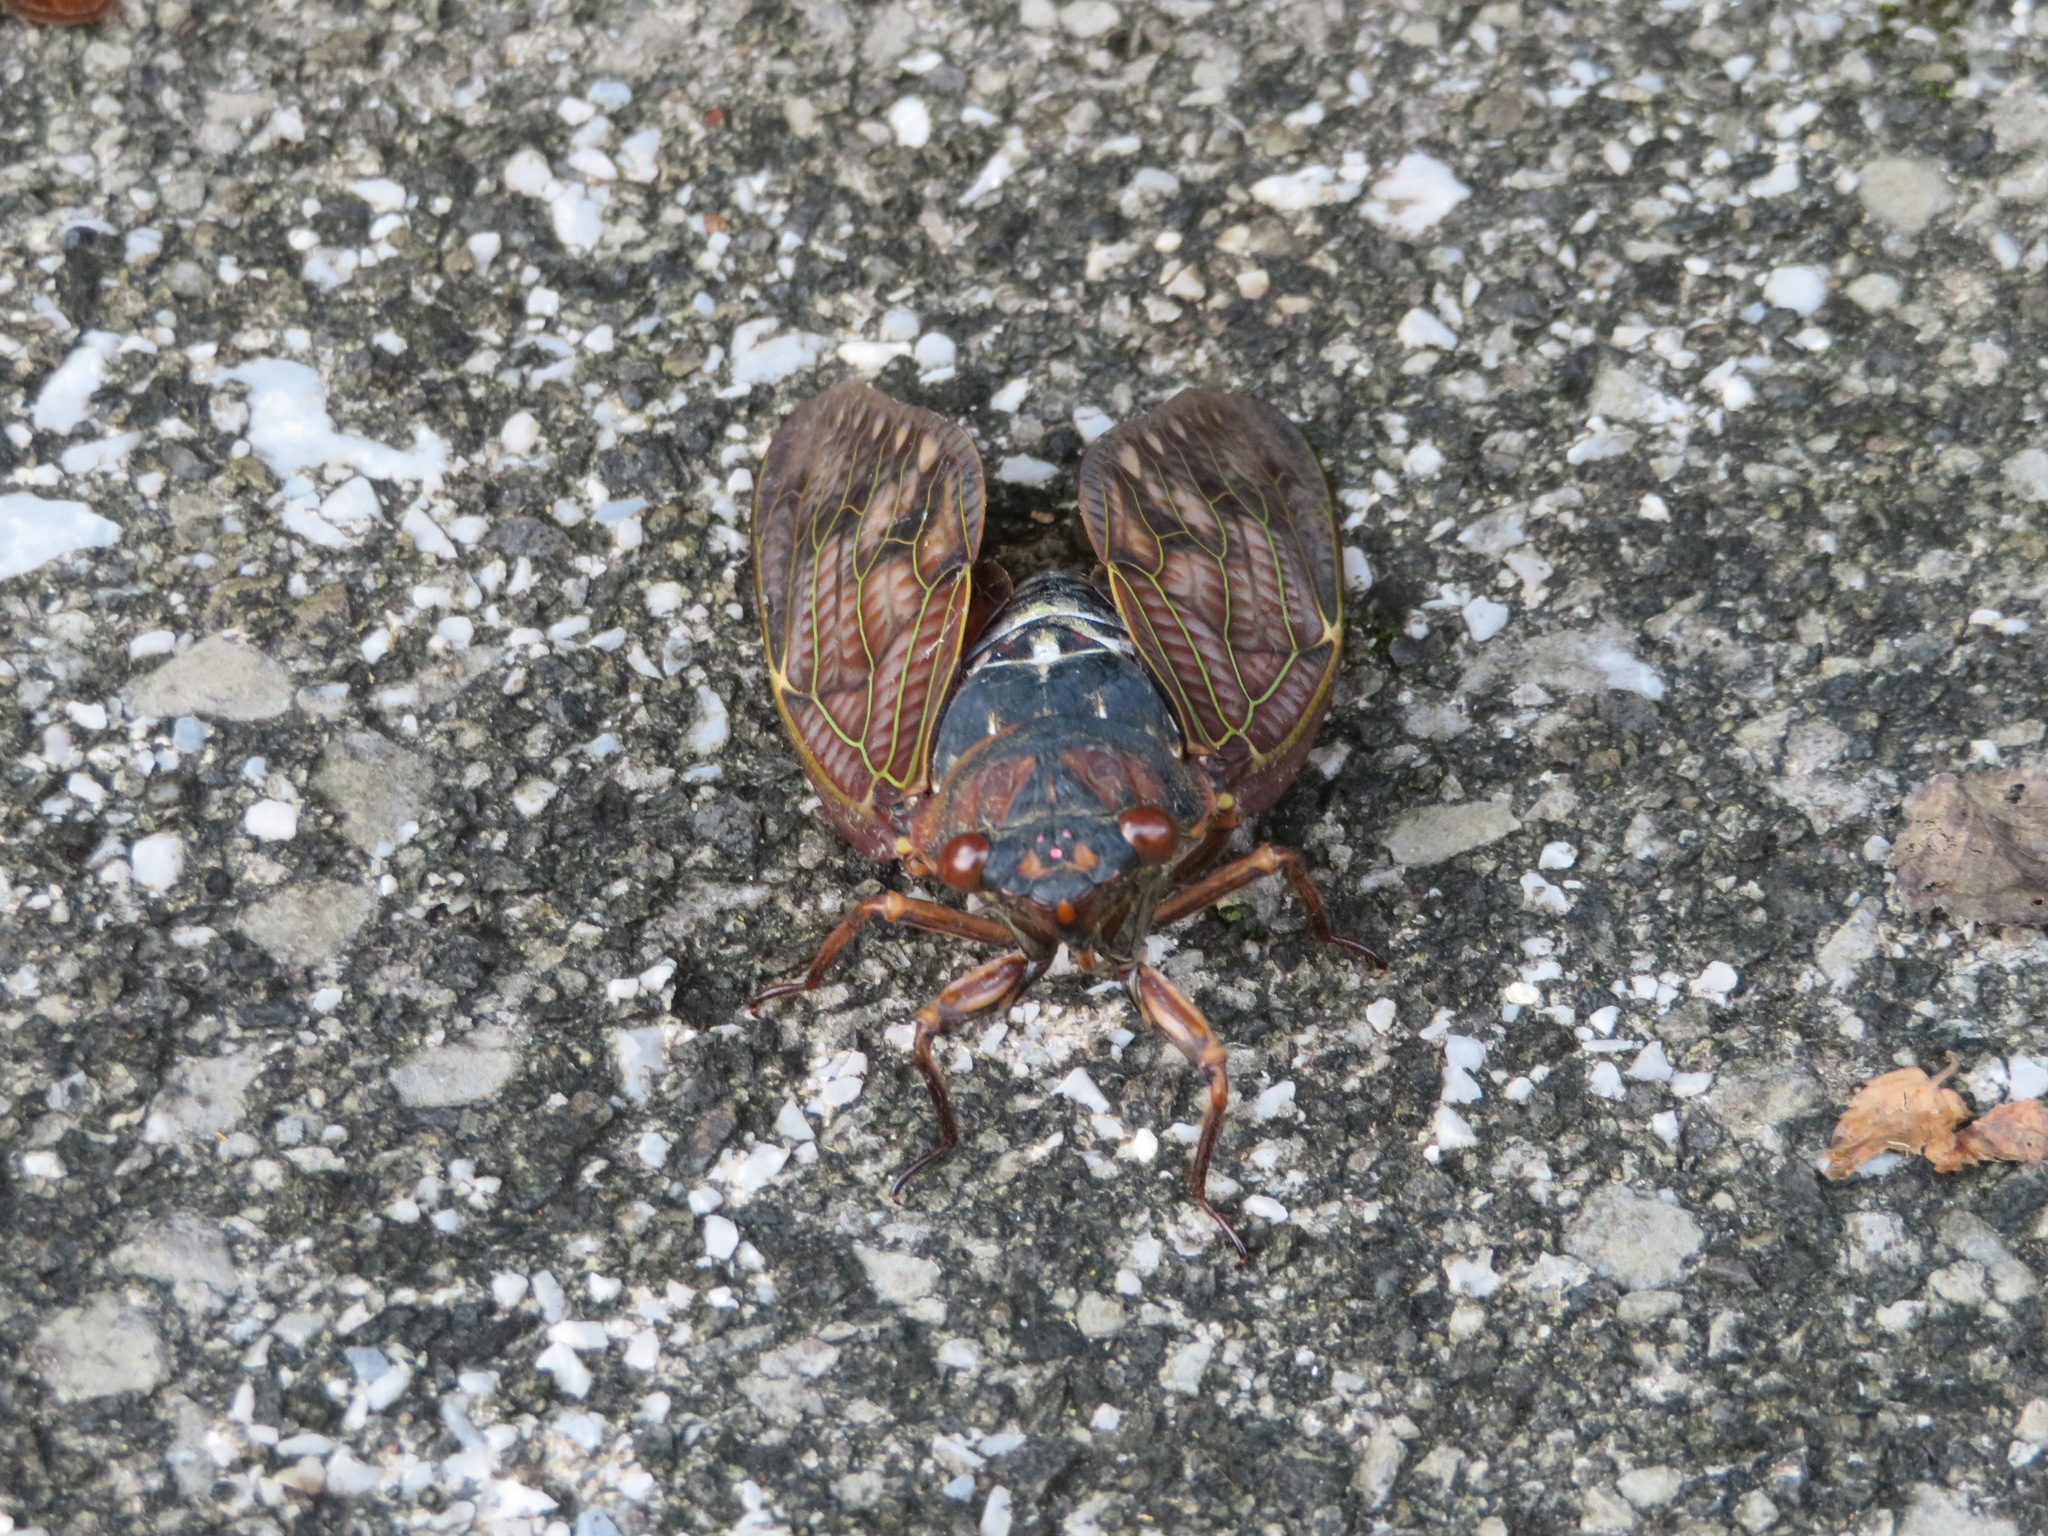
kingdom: Animalia
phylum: Arthropoda
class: Insecta
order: Hemiptera
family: Cicadidae
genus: Graptopsaltria
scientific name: Graptopsaltria nigrofuscata
